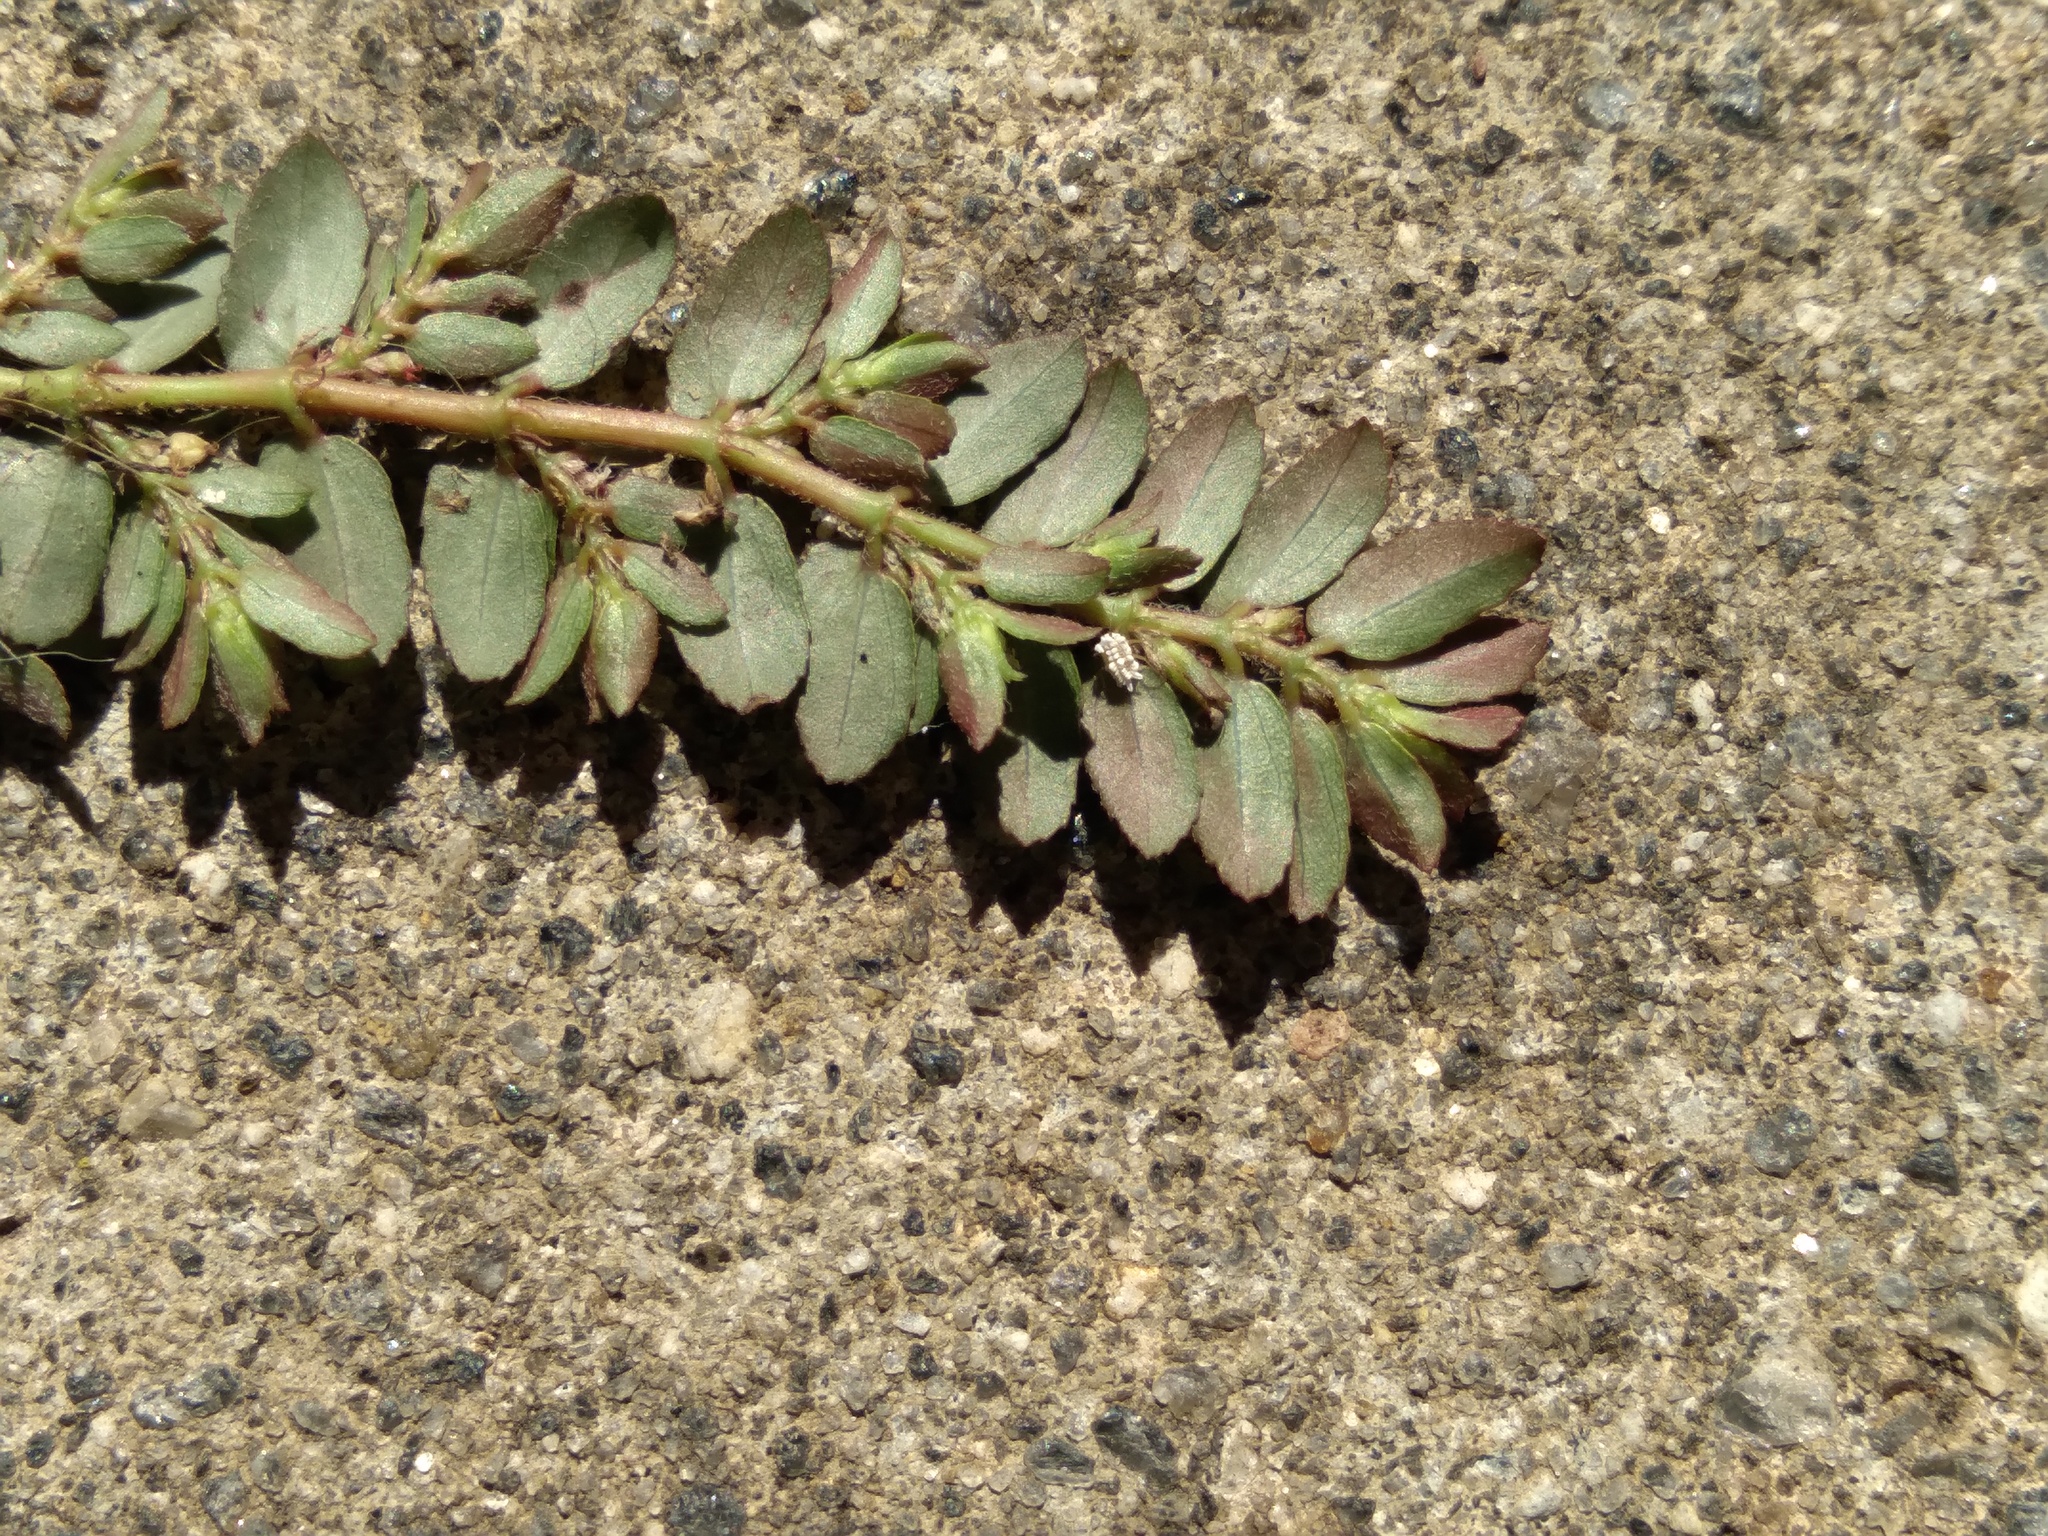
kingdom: Plantae
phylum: Tracheophyta
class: Magnoliopsida
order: Malpighiales
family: Euphorbiaceae
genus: Euphorbia
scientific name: Euphorbia thymifolia
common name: Gulf sandmat
